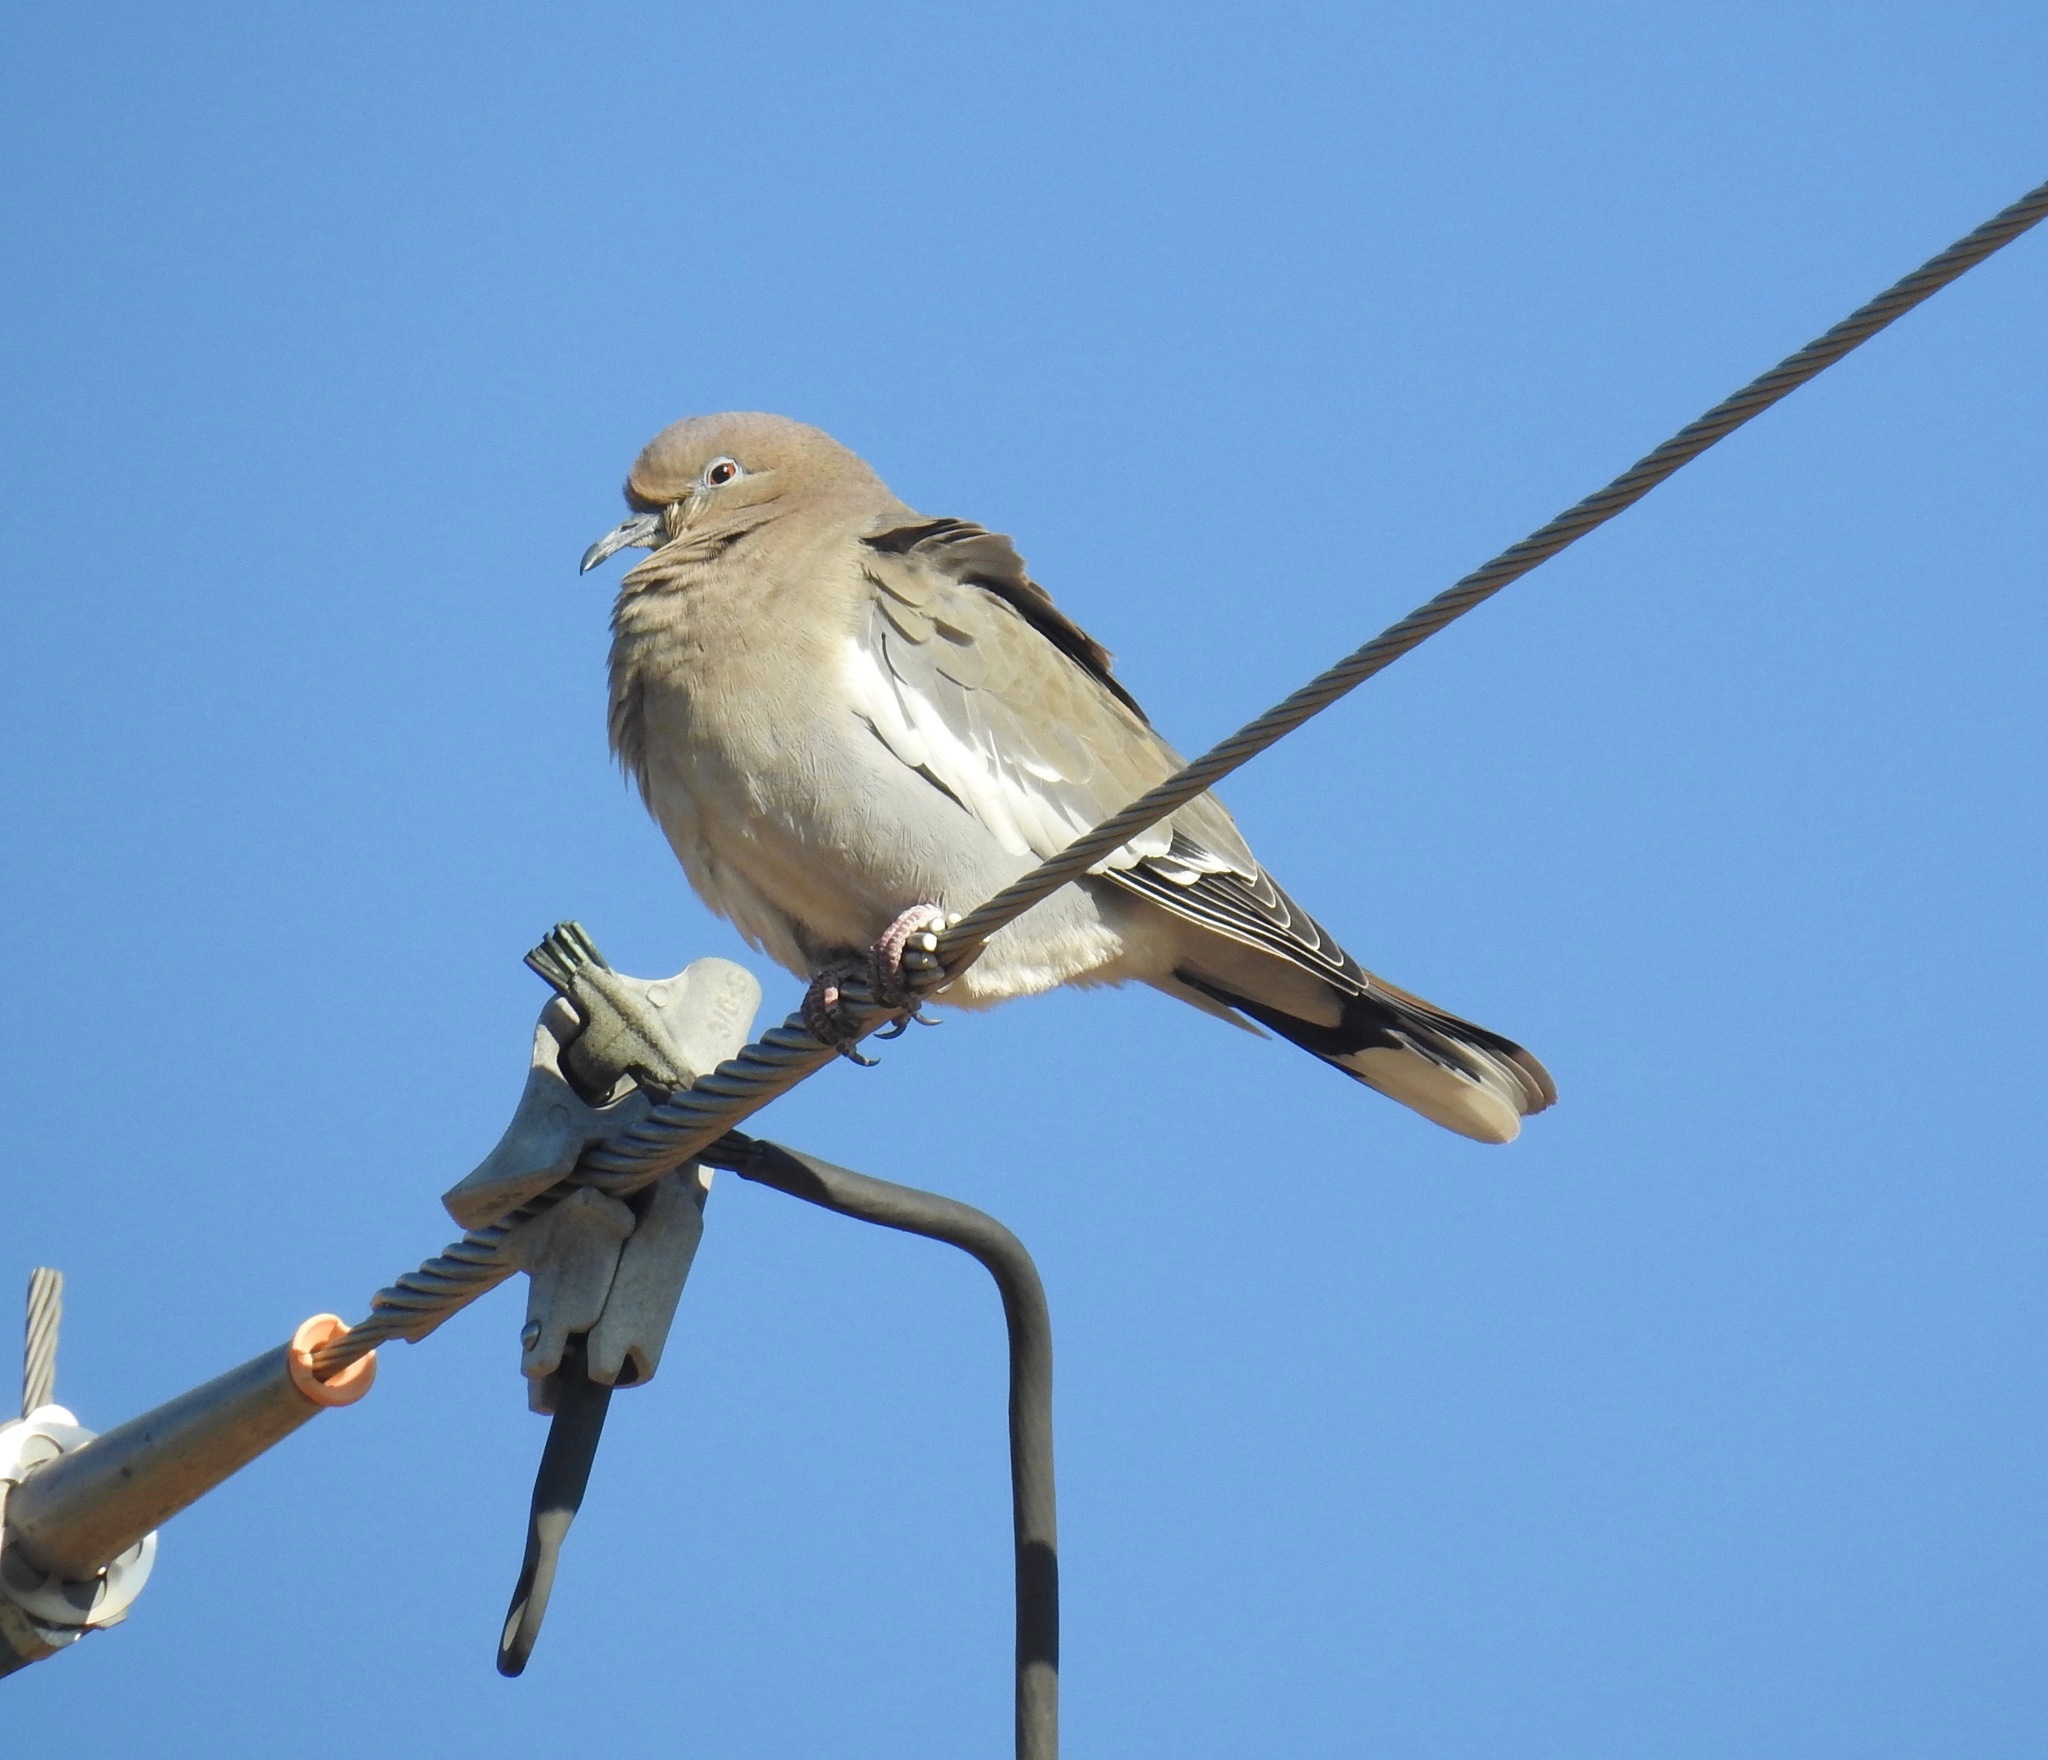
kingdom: Animalia
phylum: Chordata
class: Aves
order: Columbiformes
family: Columbidae
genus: Zenaida
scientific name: Zenaida asiatica
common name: White-winged dove
